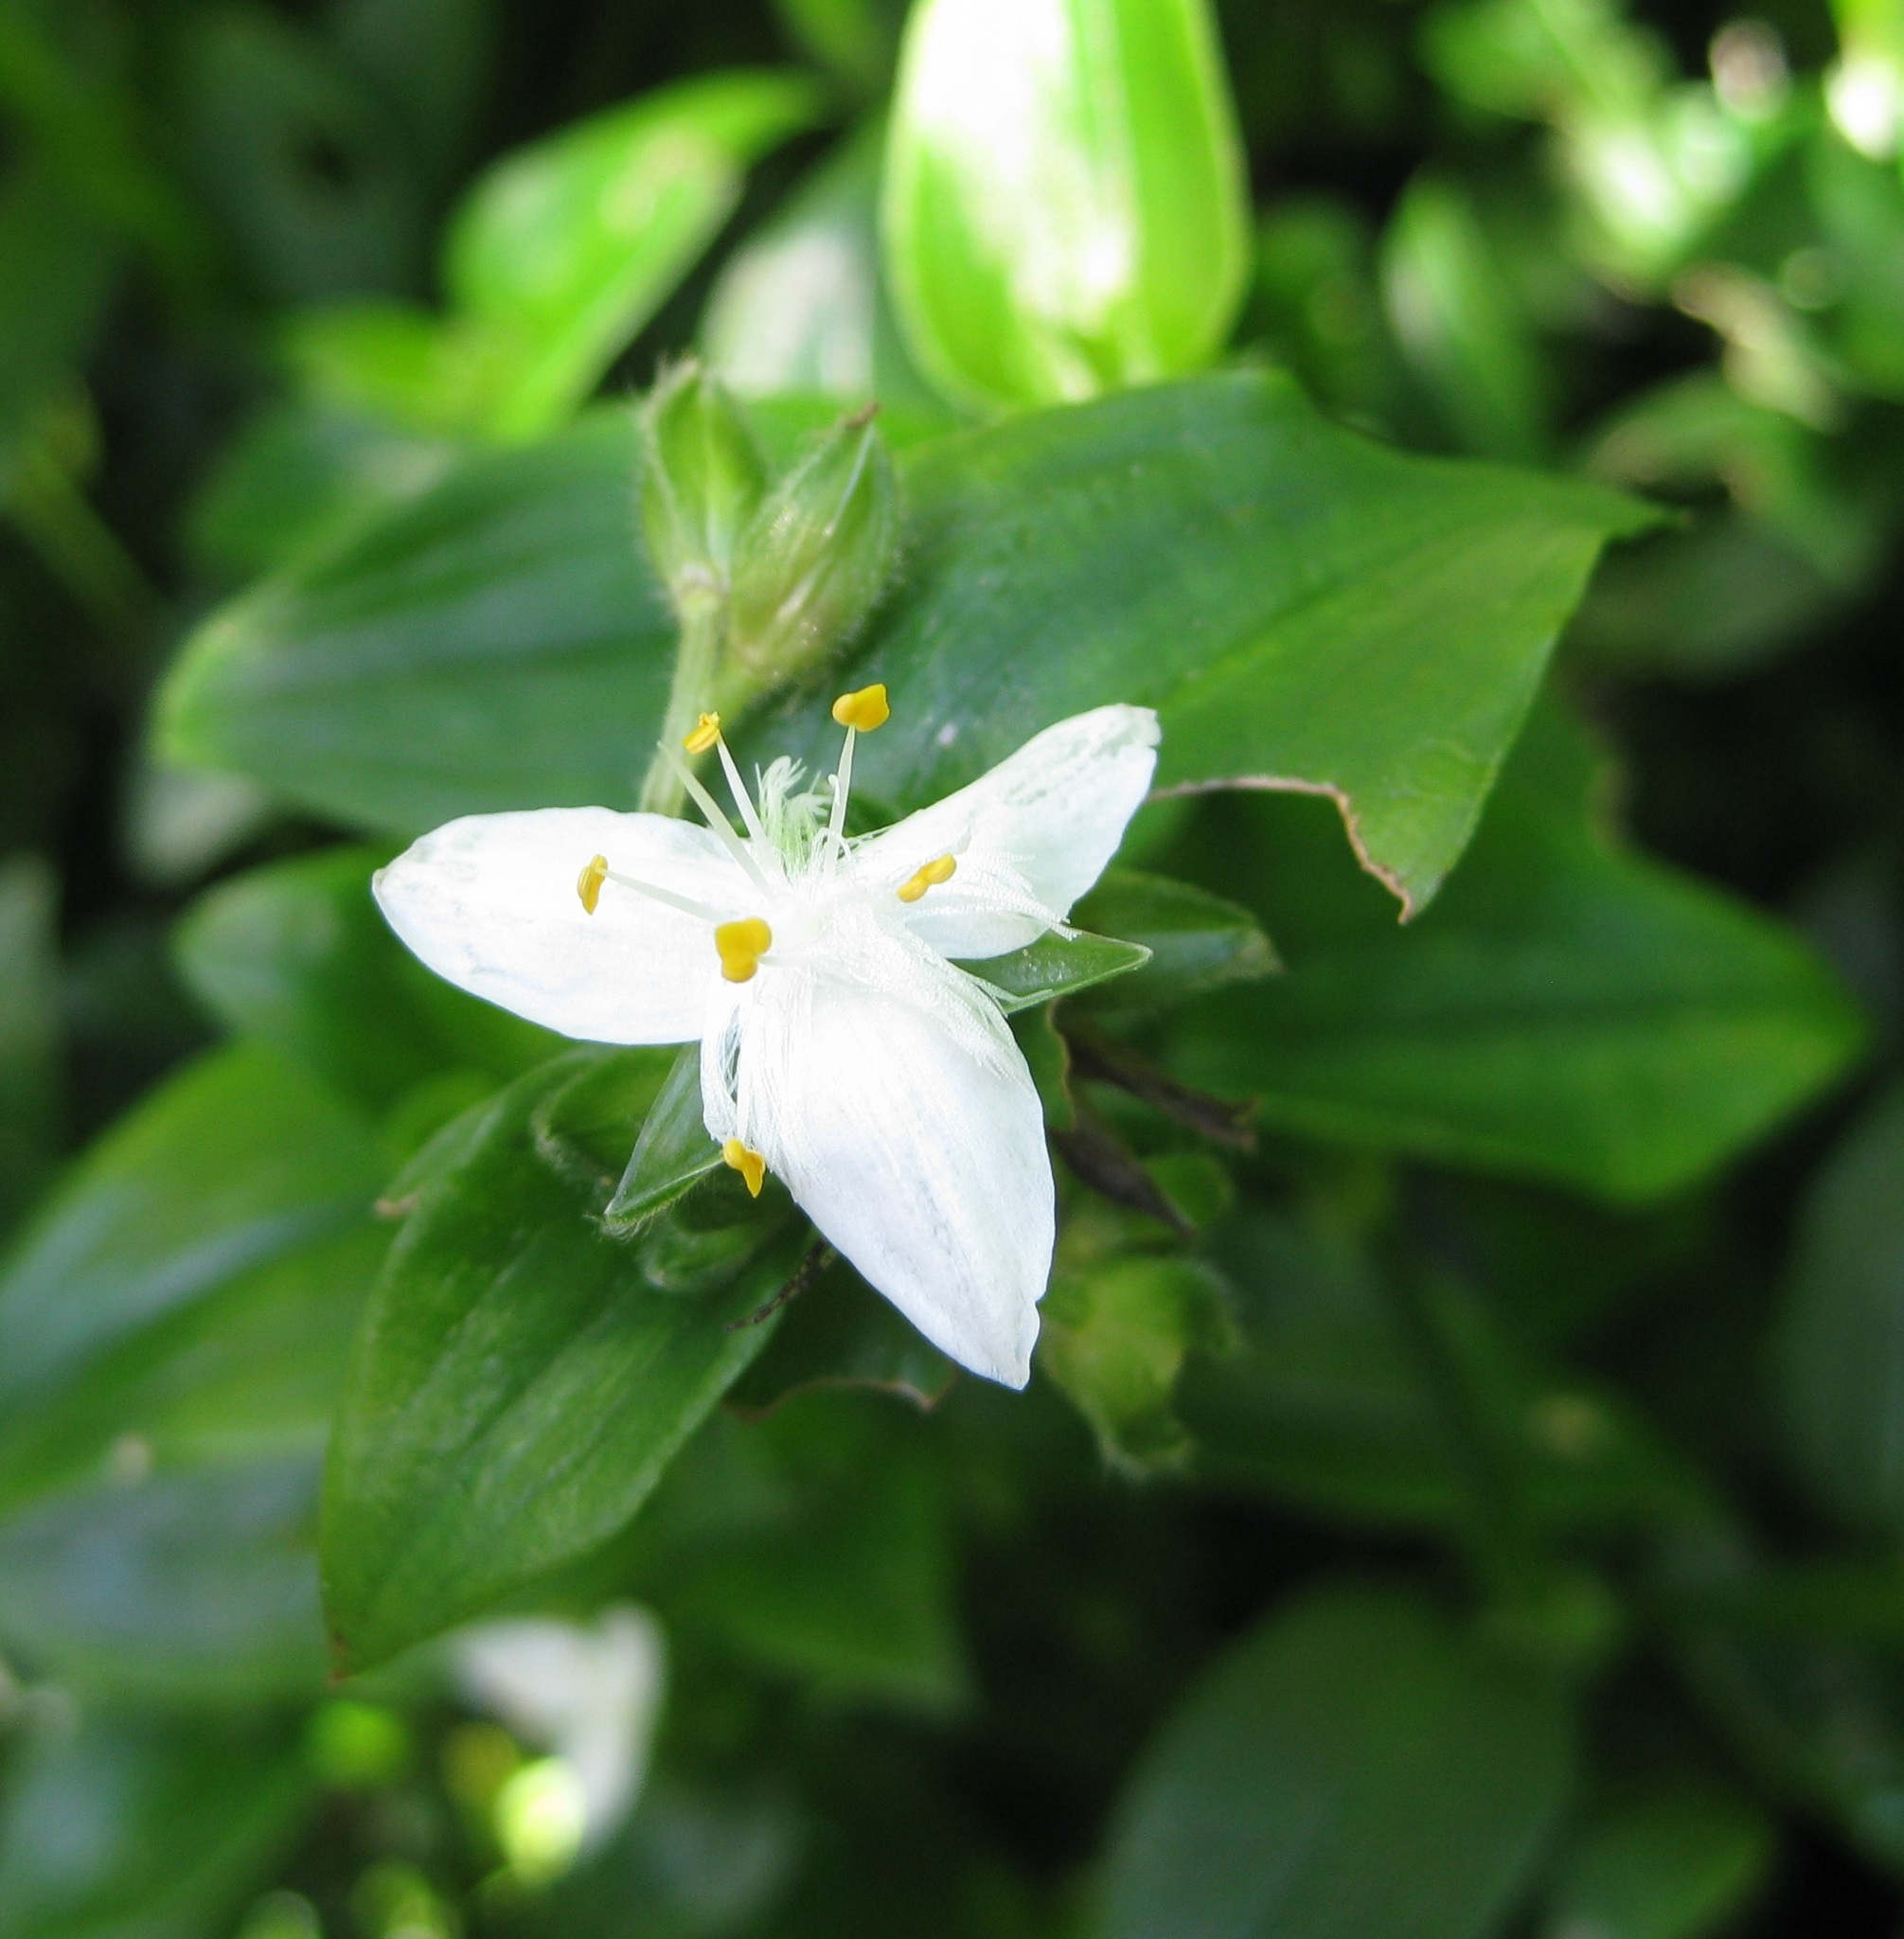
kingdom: Plantae
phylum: Tracheophyta
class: Liliopsida
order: Commelinales
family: Commelinaceae
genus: Tradescantia
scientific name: Tradescantia fluminensis
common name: Wandering-jew
